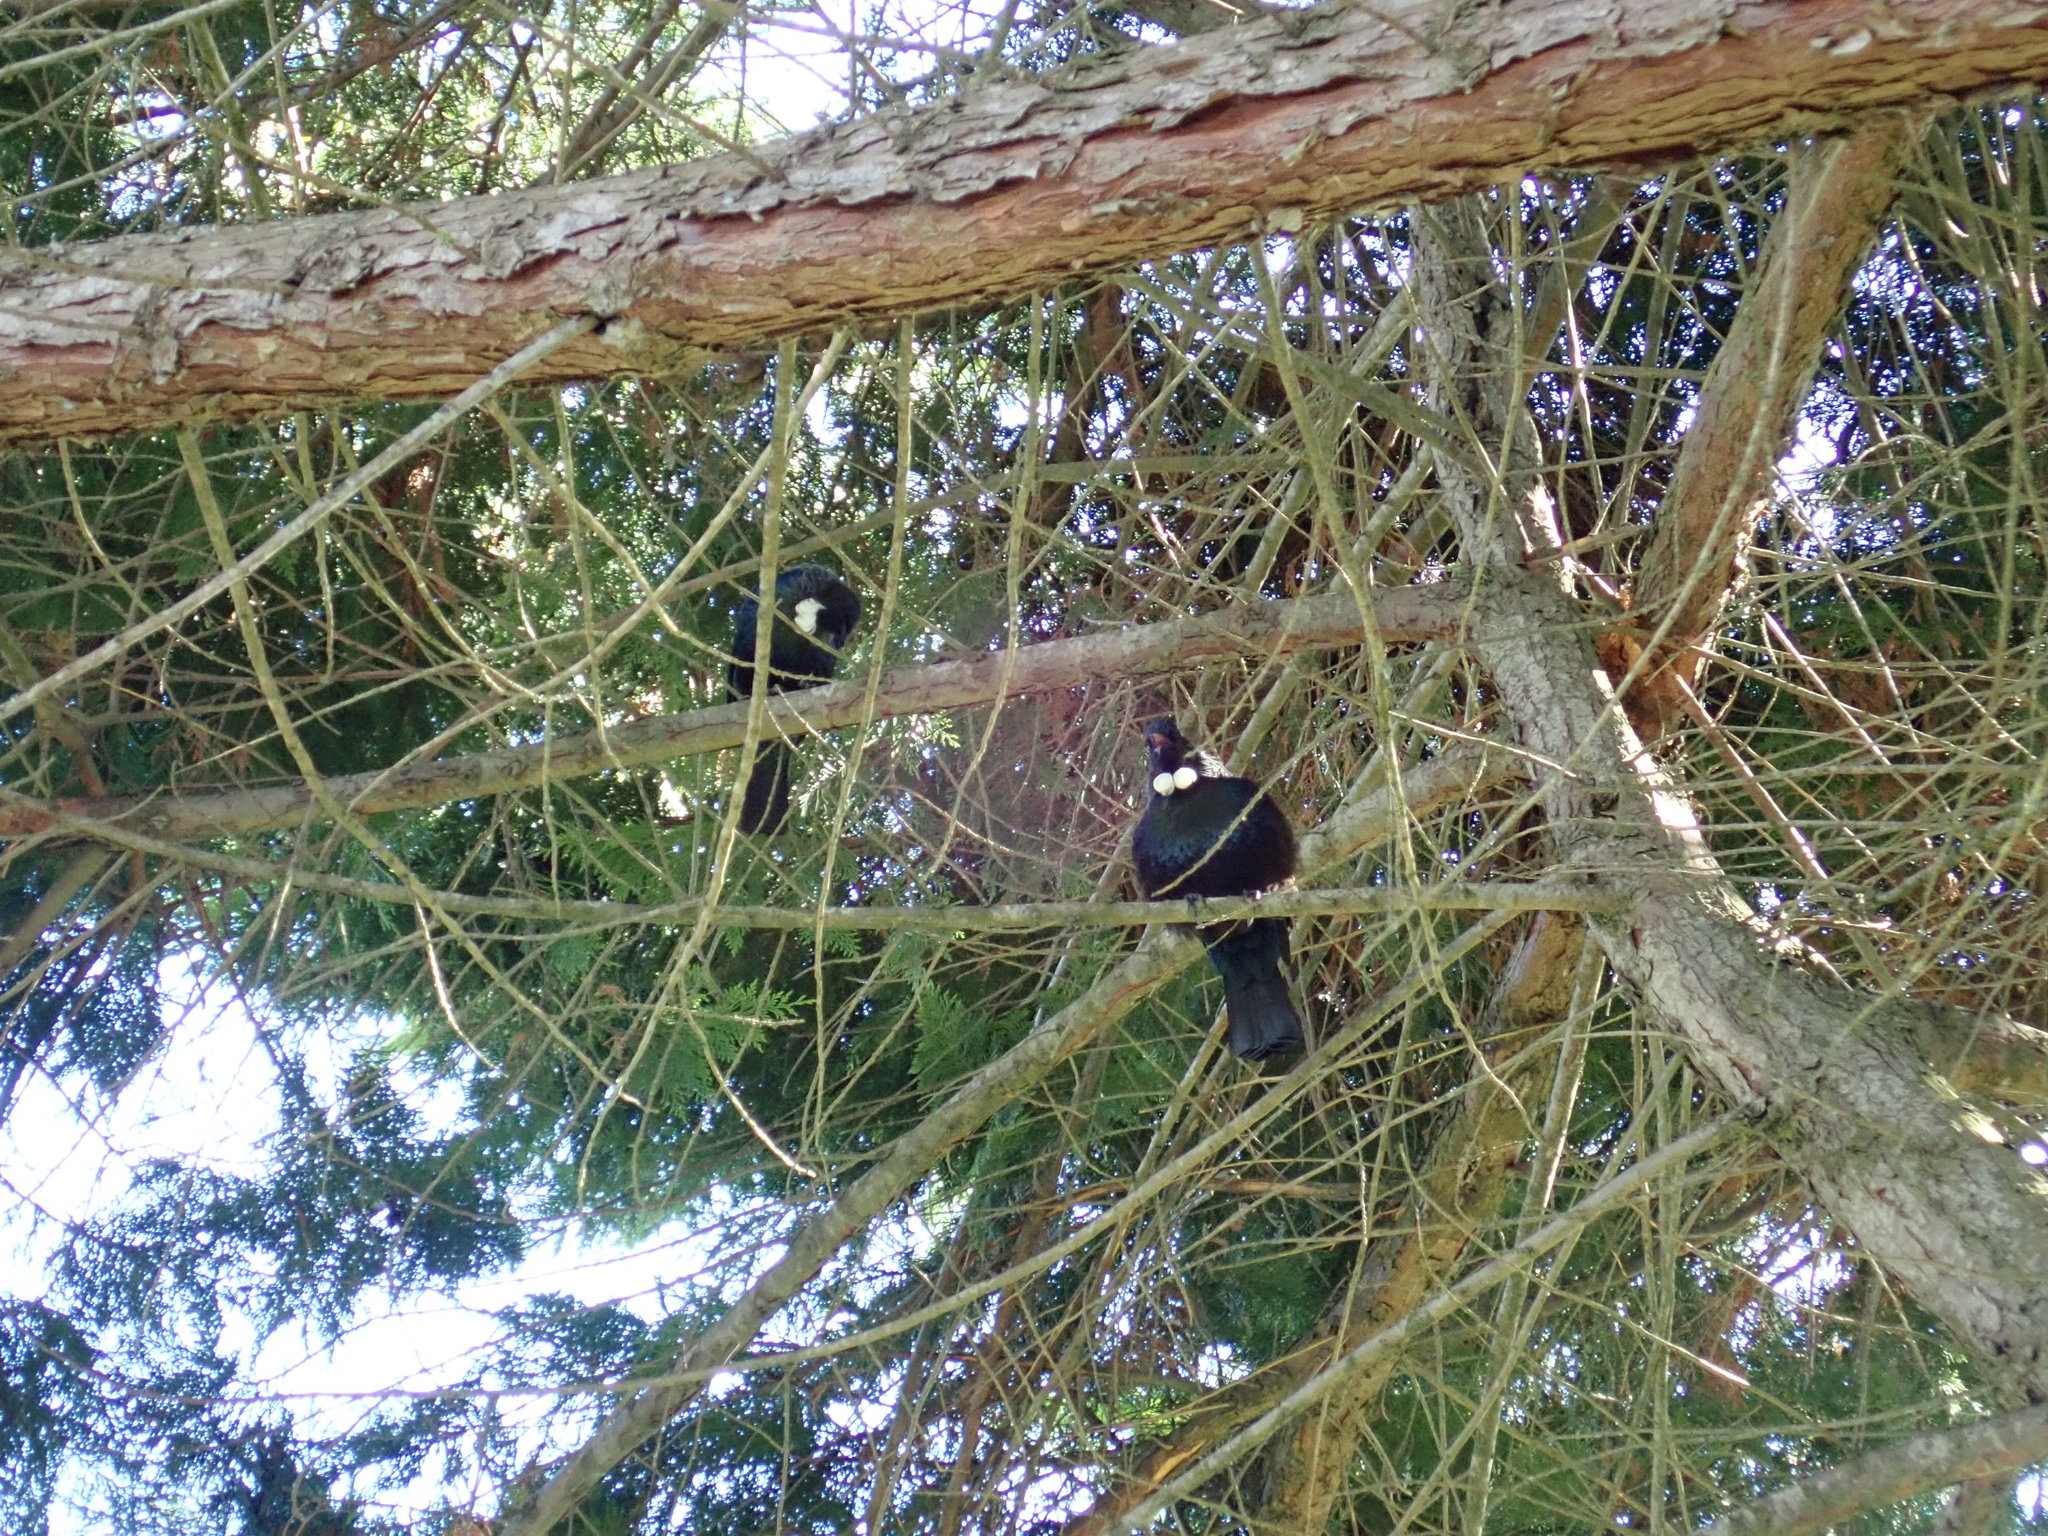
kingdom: Animalia
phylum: Chordata
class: Aves
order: Passeriformes
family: Meliphagidae
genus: Prosthemadera
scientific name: Prosthemadera novaeseelandiae
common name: Tui
